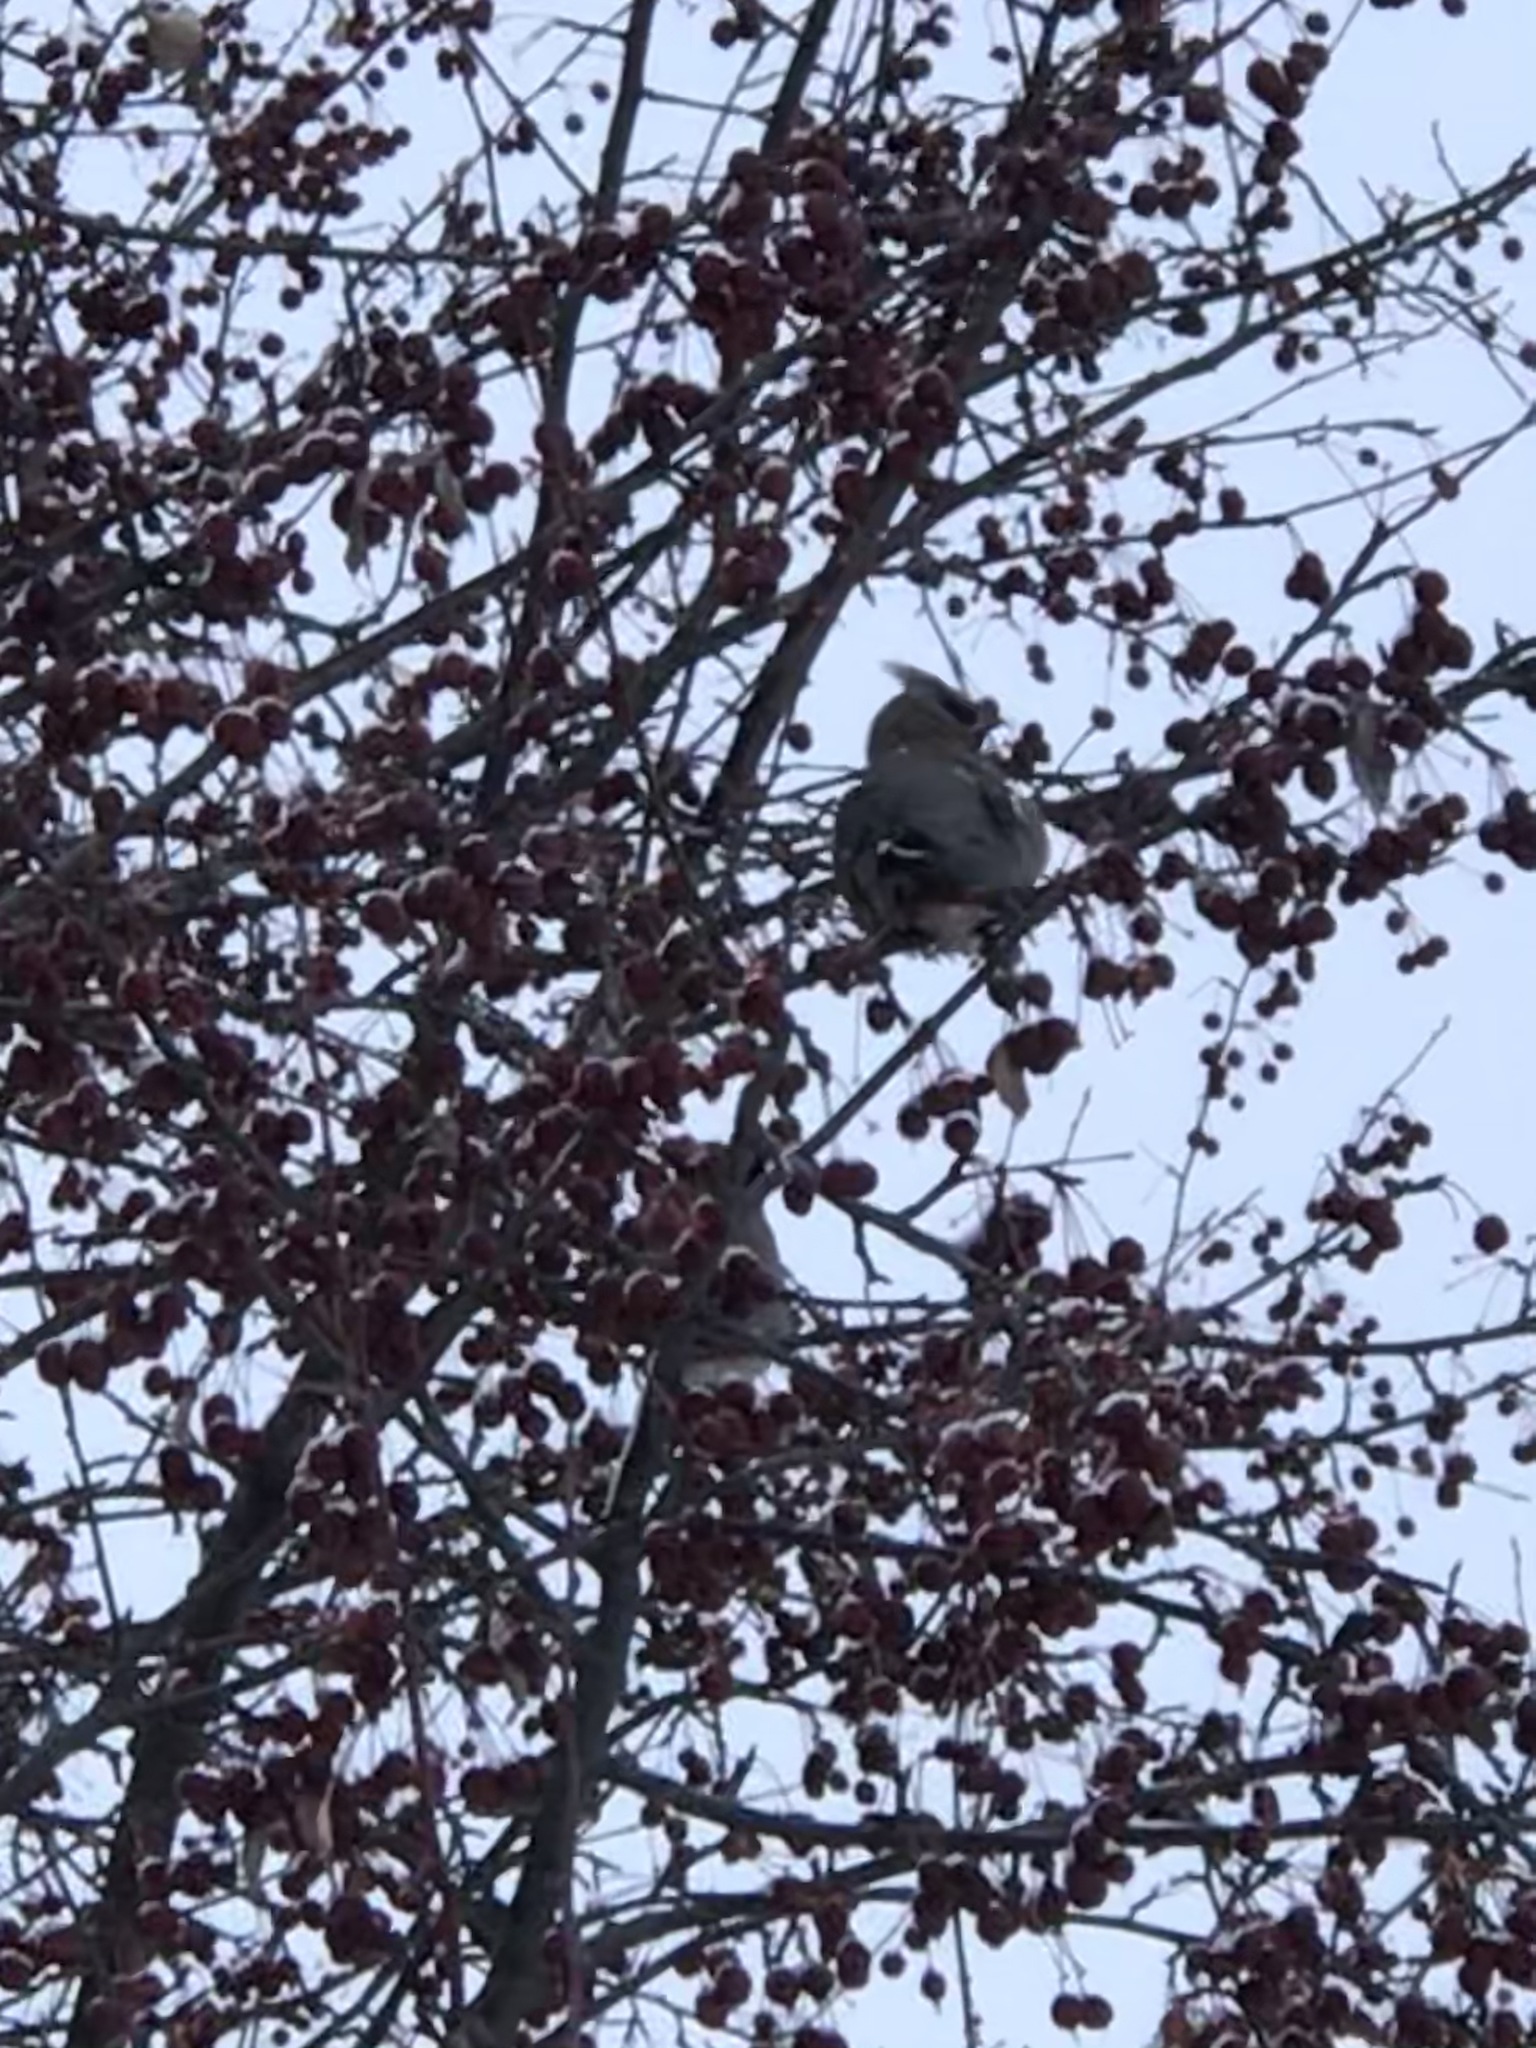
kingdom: Animalia
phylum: Chordata
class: Aves
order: Passeriformes
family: Bombycillidae
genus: Bombycilla
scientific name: Bombycilla garrulus
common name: Bohemian waxwing
